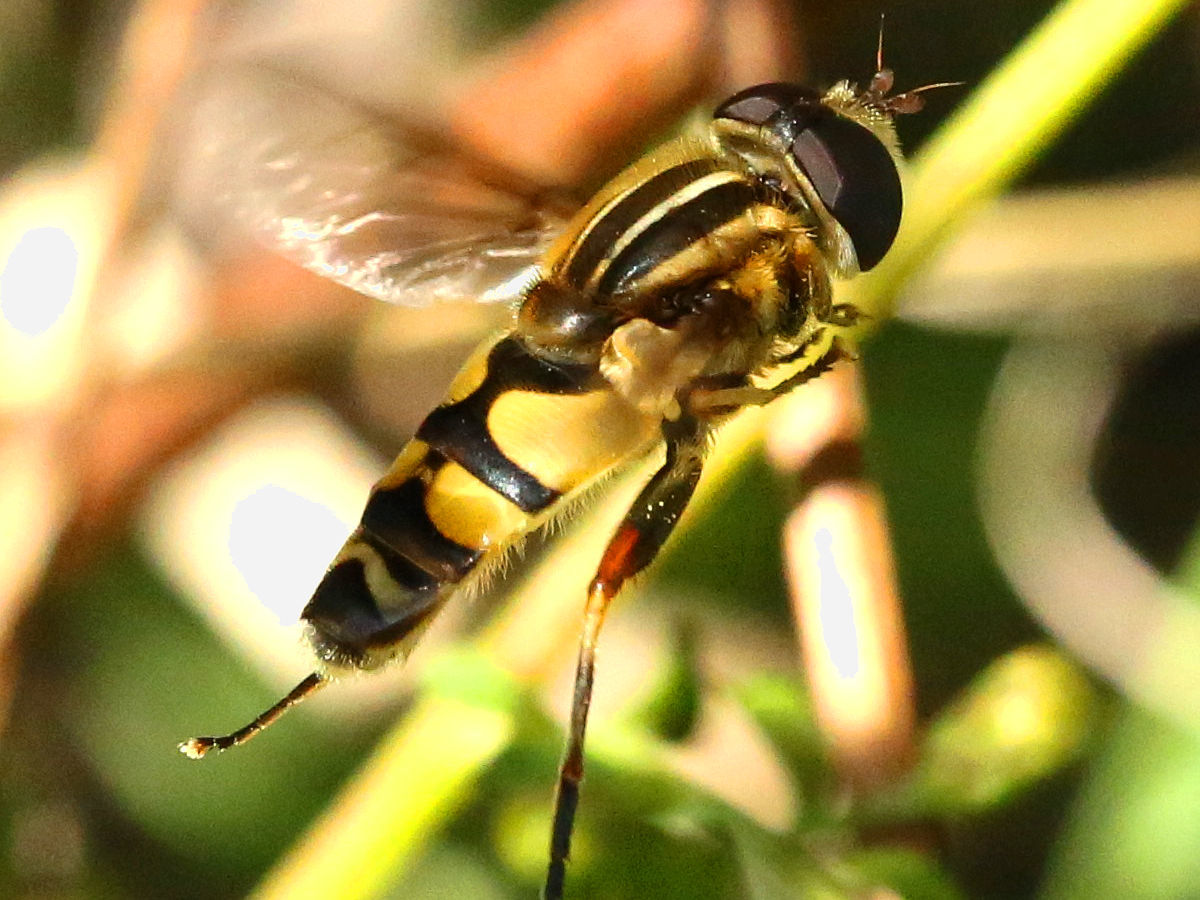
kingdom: Animalia
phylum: Arthropoda
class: Insecta
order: Diptera
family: Syrphidae
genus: Helophilus
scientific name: Helophilus fasciatus
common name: Narrow-headed marsh fly
